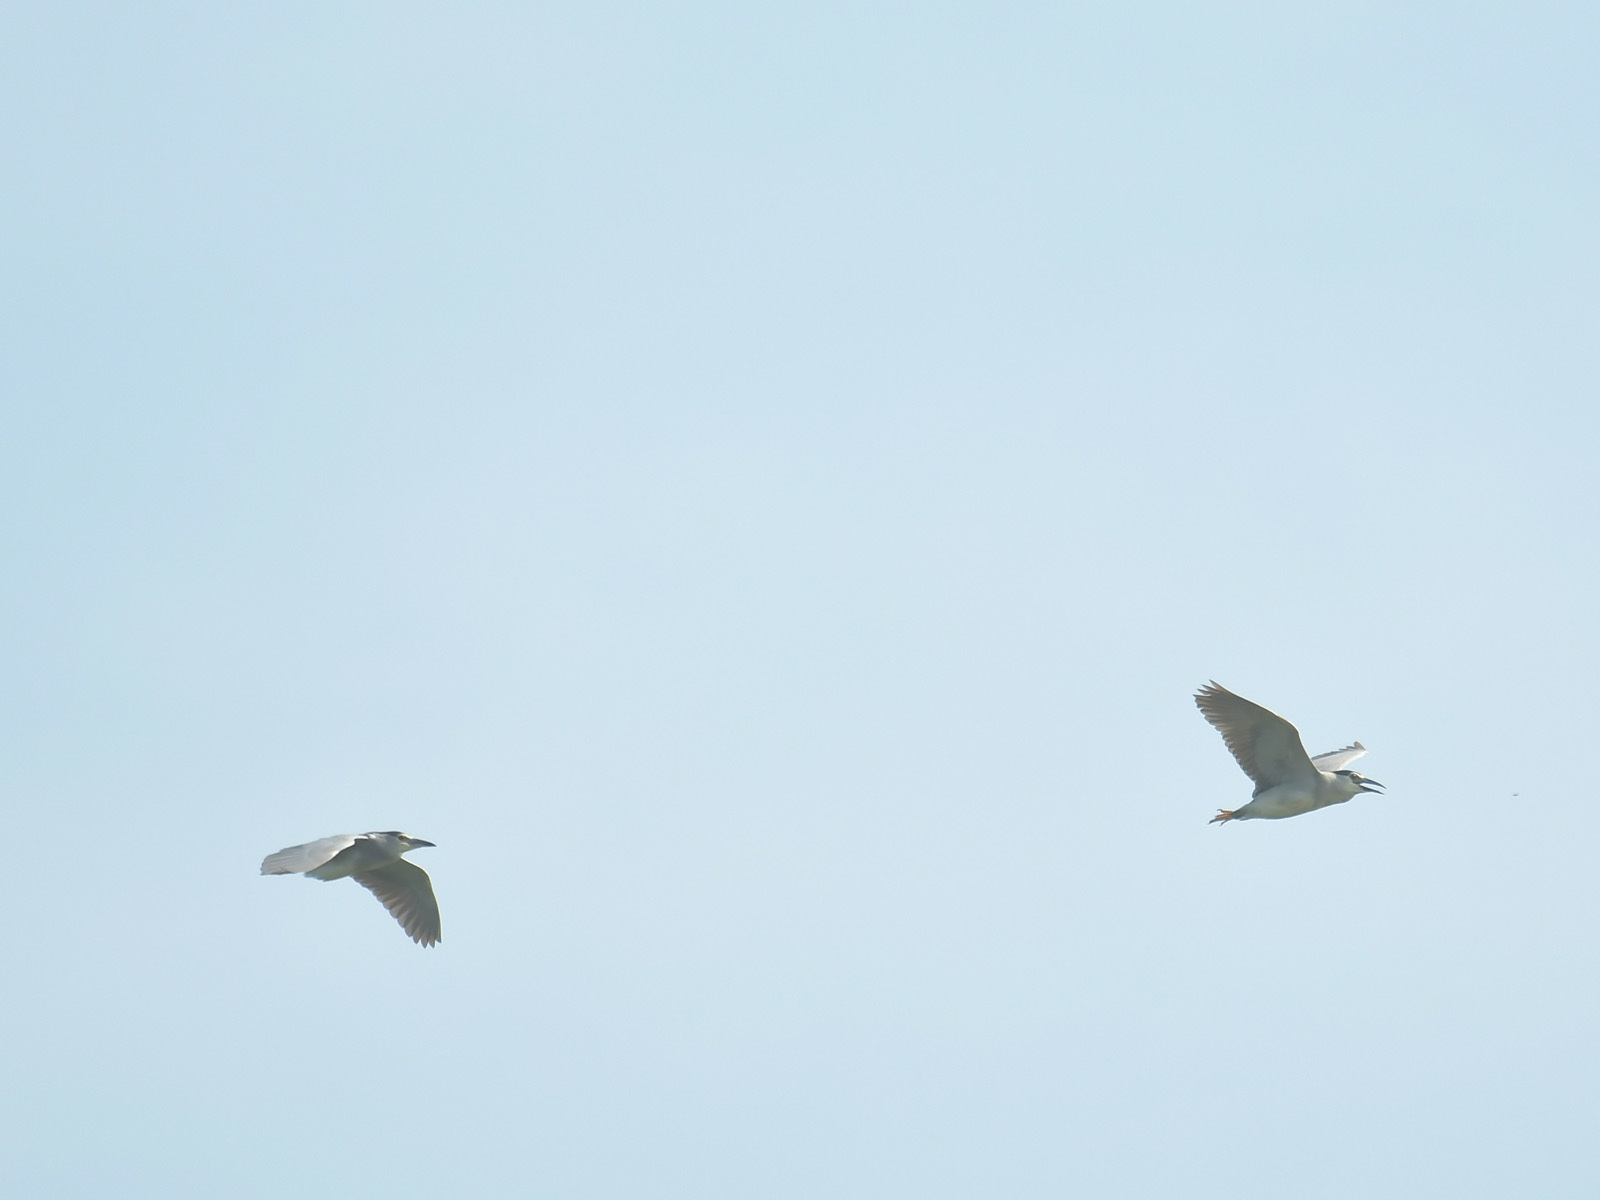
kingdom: Animalia
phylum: Chordata
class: Aves
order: Pelecaniformes
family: Ardeidae
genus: Nycticorax
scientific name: Nycticorax nycticorax
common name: Black-crowned night heron
